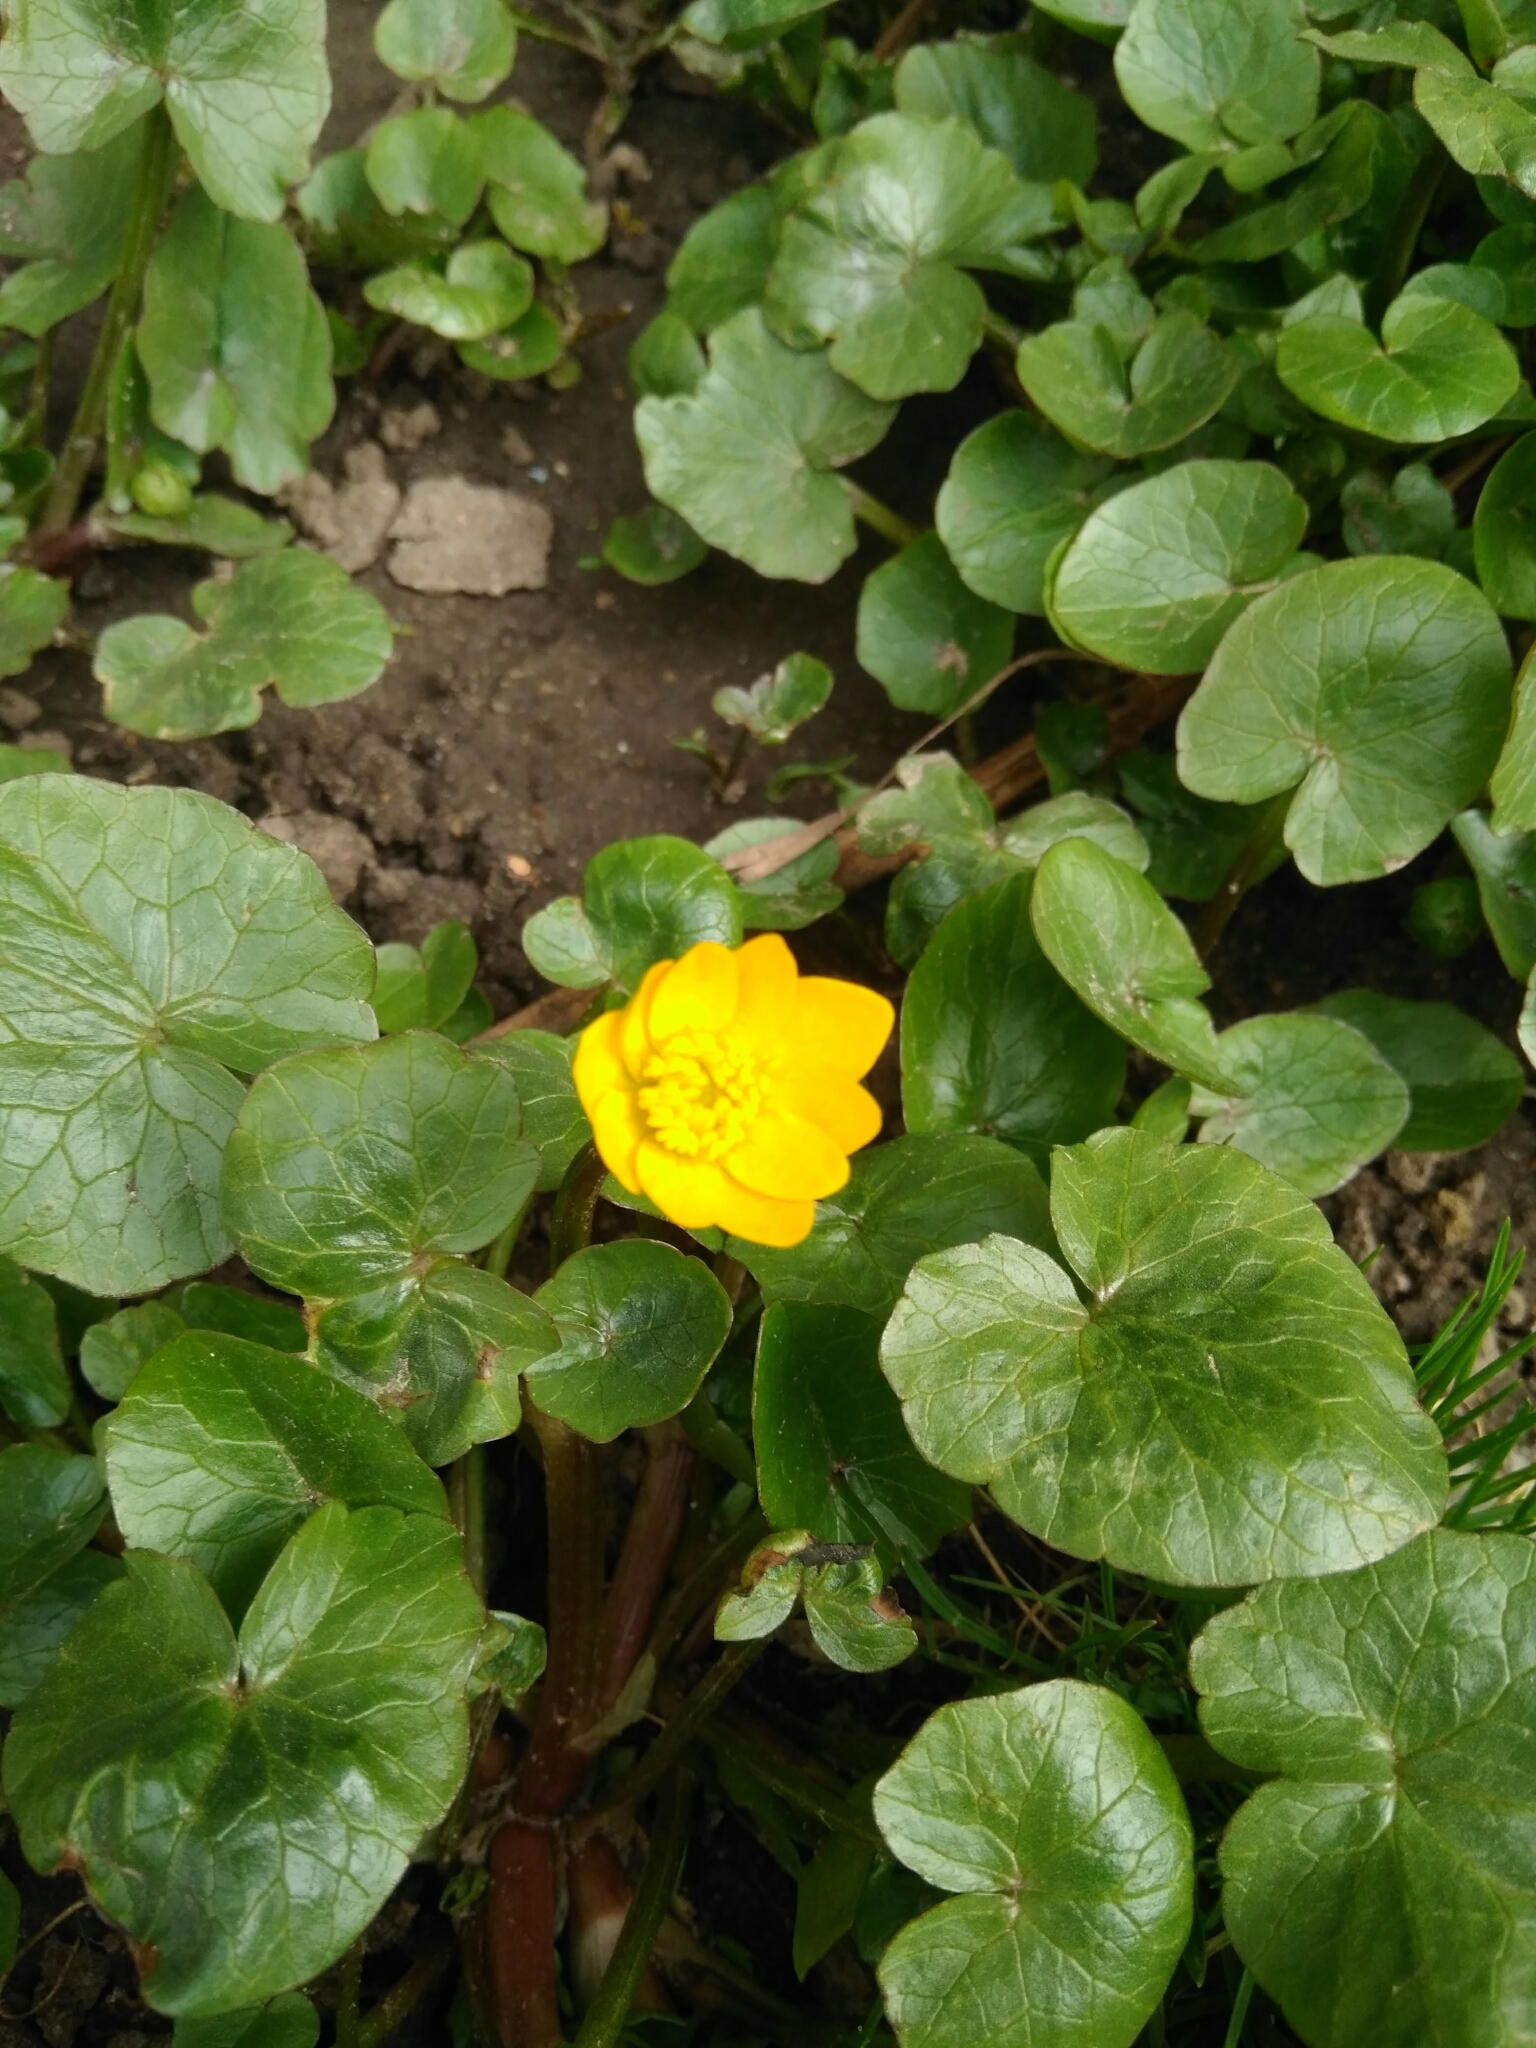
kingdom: Plantae
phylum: Tracheophyta
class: Magnoliopsida
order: Ranunculales
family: Ranunculaceae
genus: Ficaria
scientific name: Ficaria verna
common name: Lesser celandine
